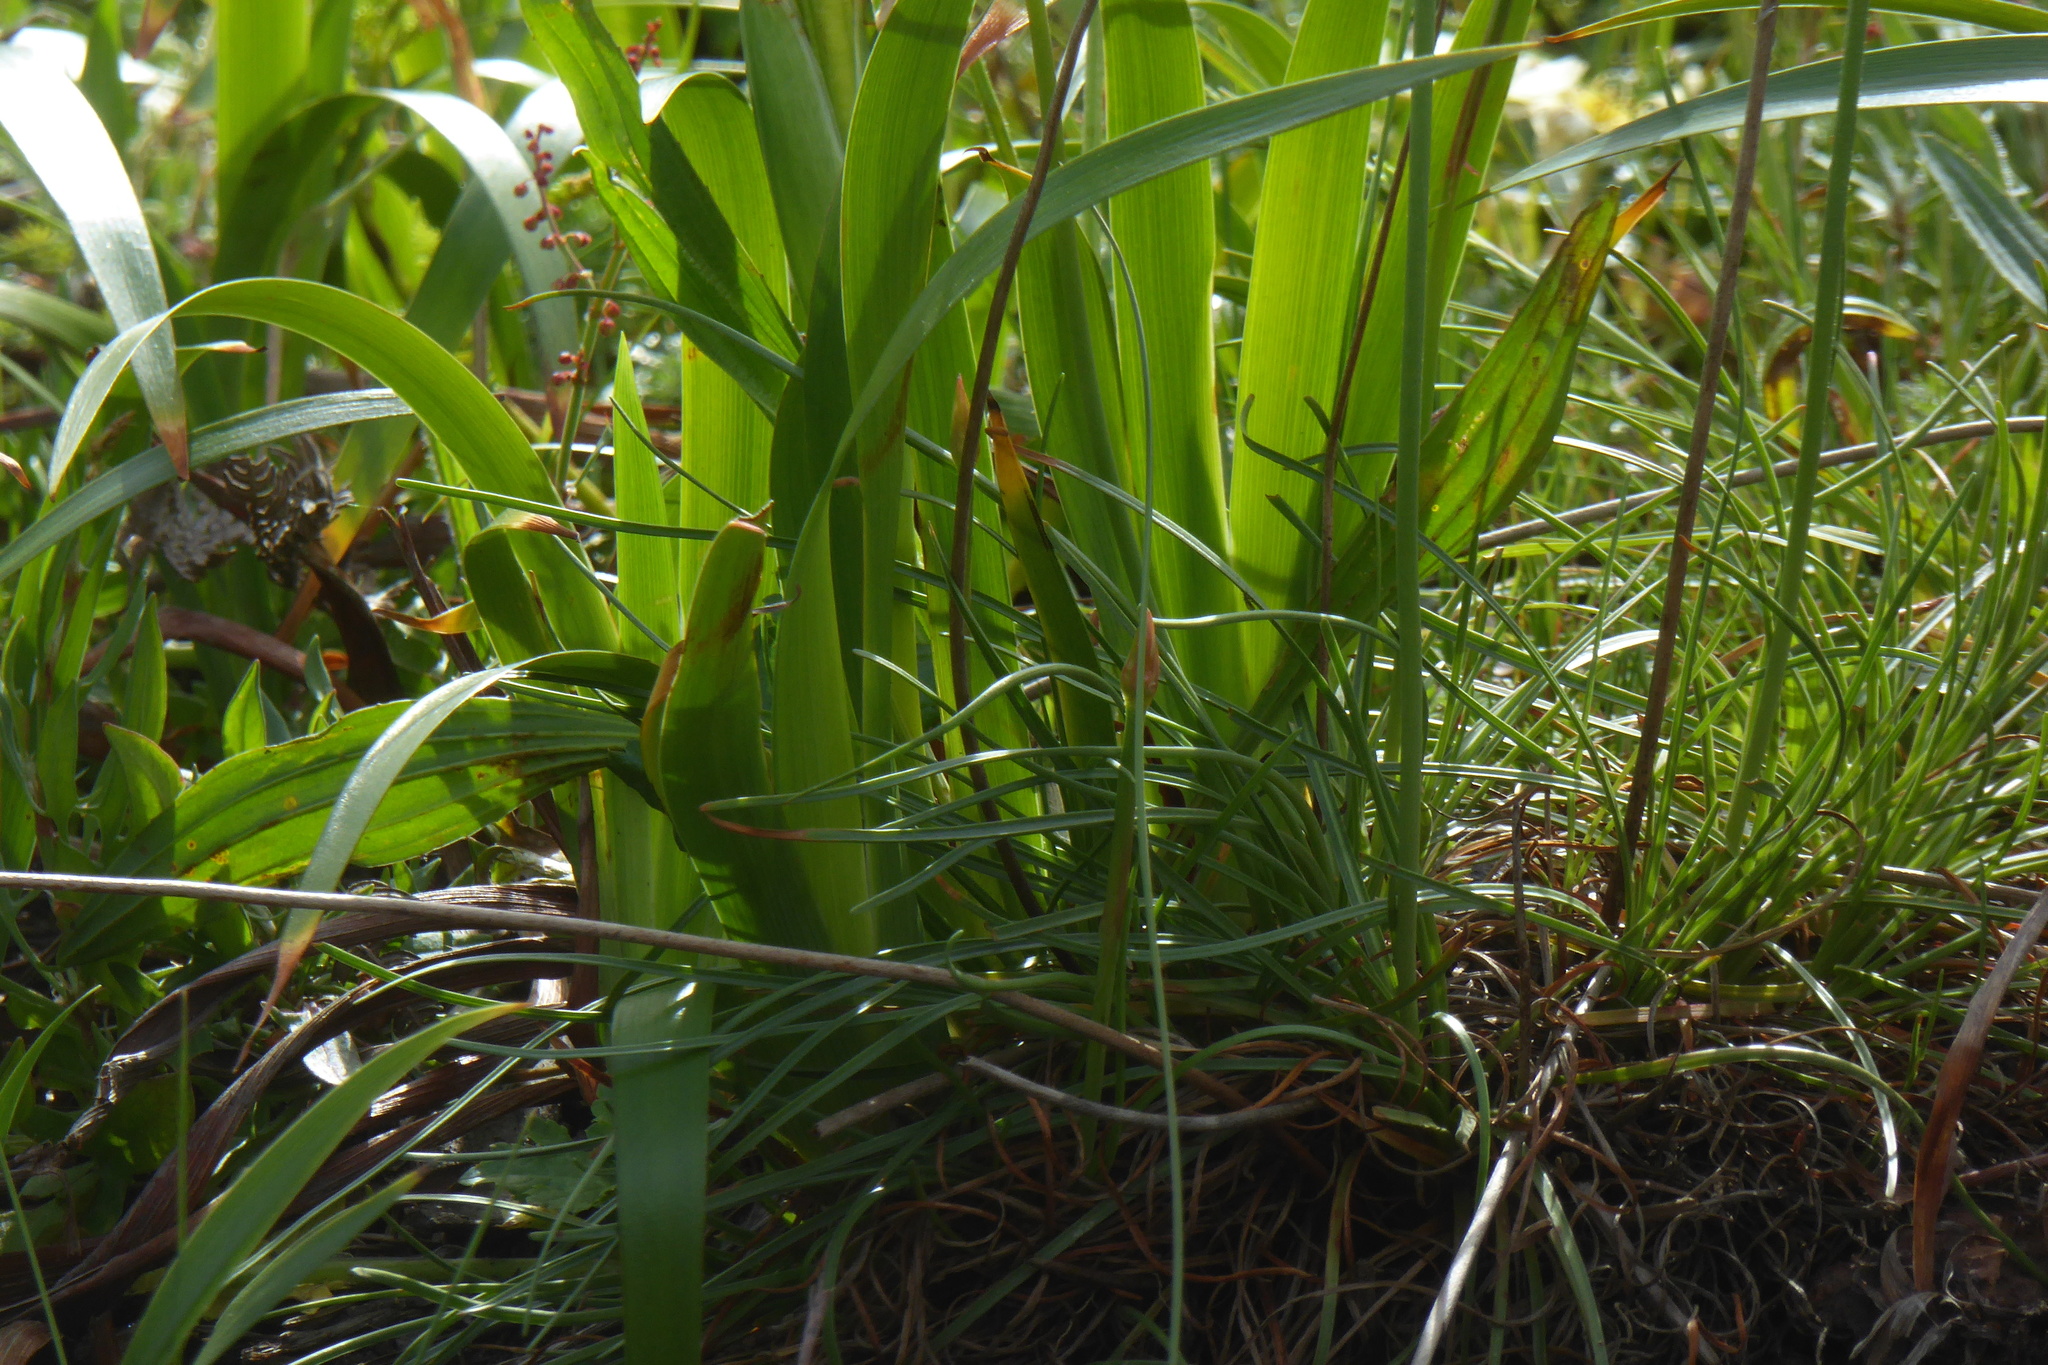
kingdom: Plantae
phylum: Tracheophyta
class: Liliopsida
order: Asparagales
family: Iridaceae
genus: Iris
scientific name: Iris douglasiana
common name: Marin iris
